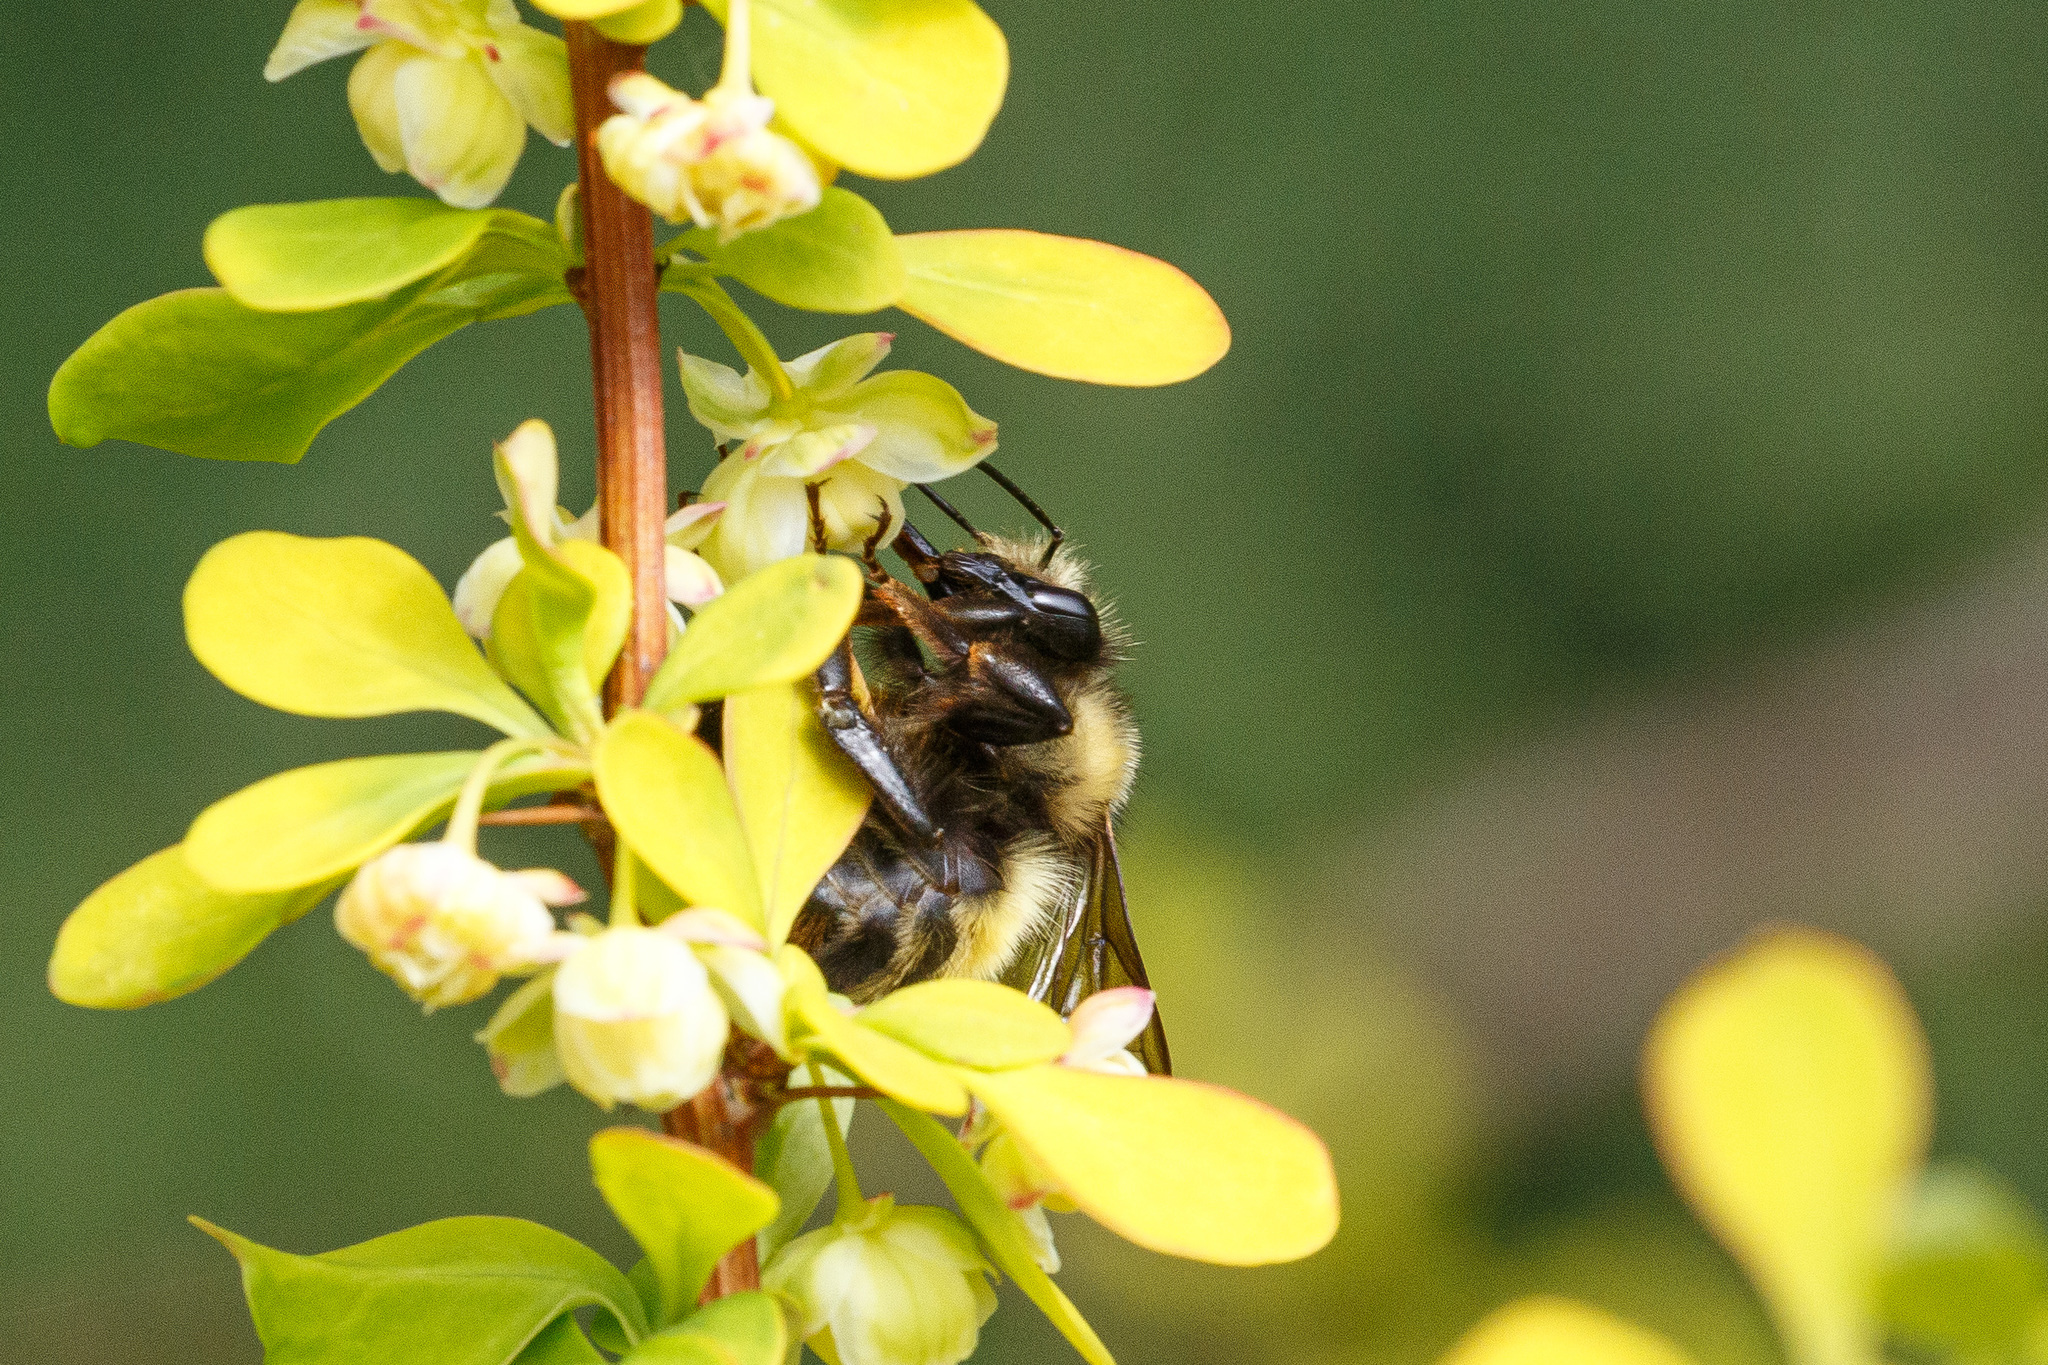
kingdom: Animalia
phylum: Arthropoda
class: Insecta
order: Hymenoptera
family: Apidae
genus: Bombus
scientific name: Bombus sitkensis
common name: Sitka bumble bee
